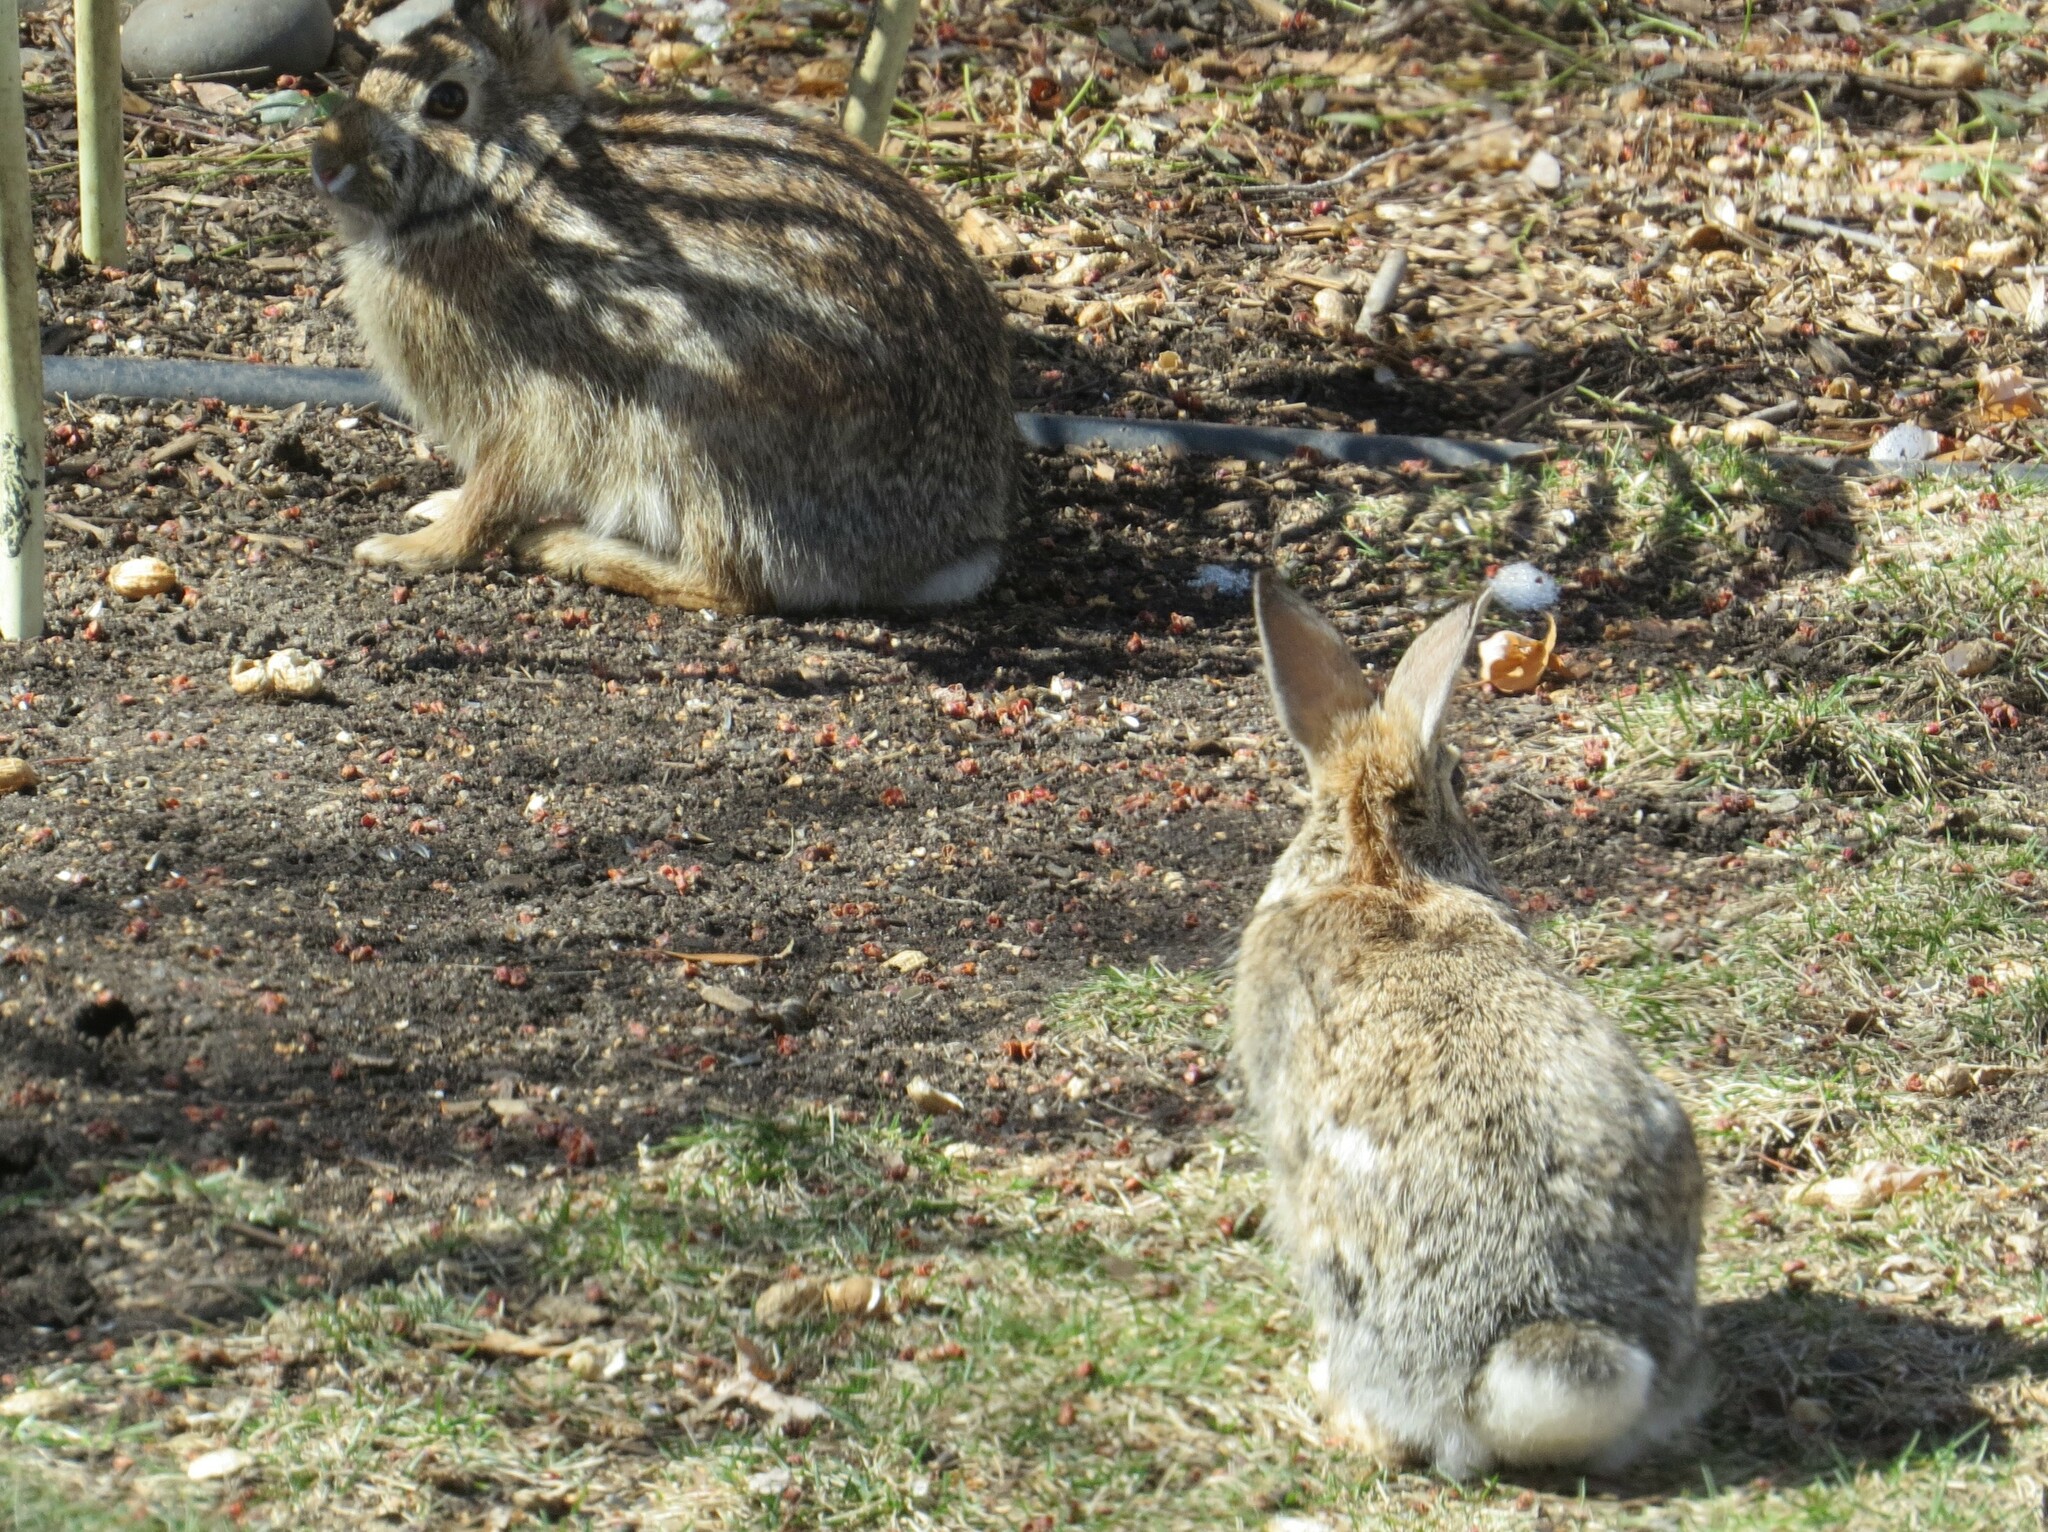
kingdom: Animalia
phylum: Chordata
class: Mammalia
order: Lagomorpha
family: Leporidae
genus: Sylvilagus
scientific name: Sylvilagus floridanus
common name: Eastern cottontail
